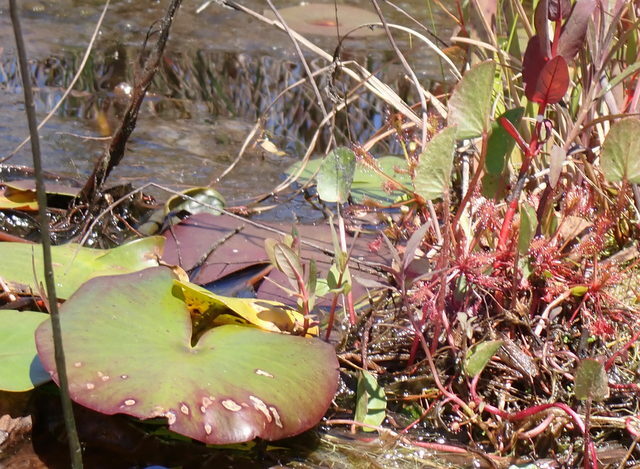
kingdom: Plantae
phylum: Tracheophyta
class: Magnoliopsida
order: Caryophyllales
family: Droseraceae
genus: Drosera
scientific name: Drosera intermedia
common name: Oblong-leaved sundew
